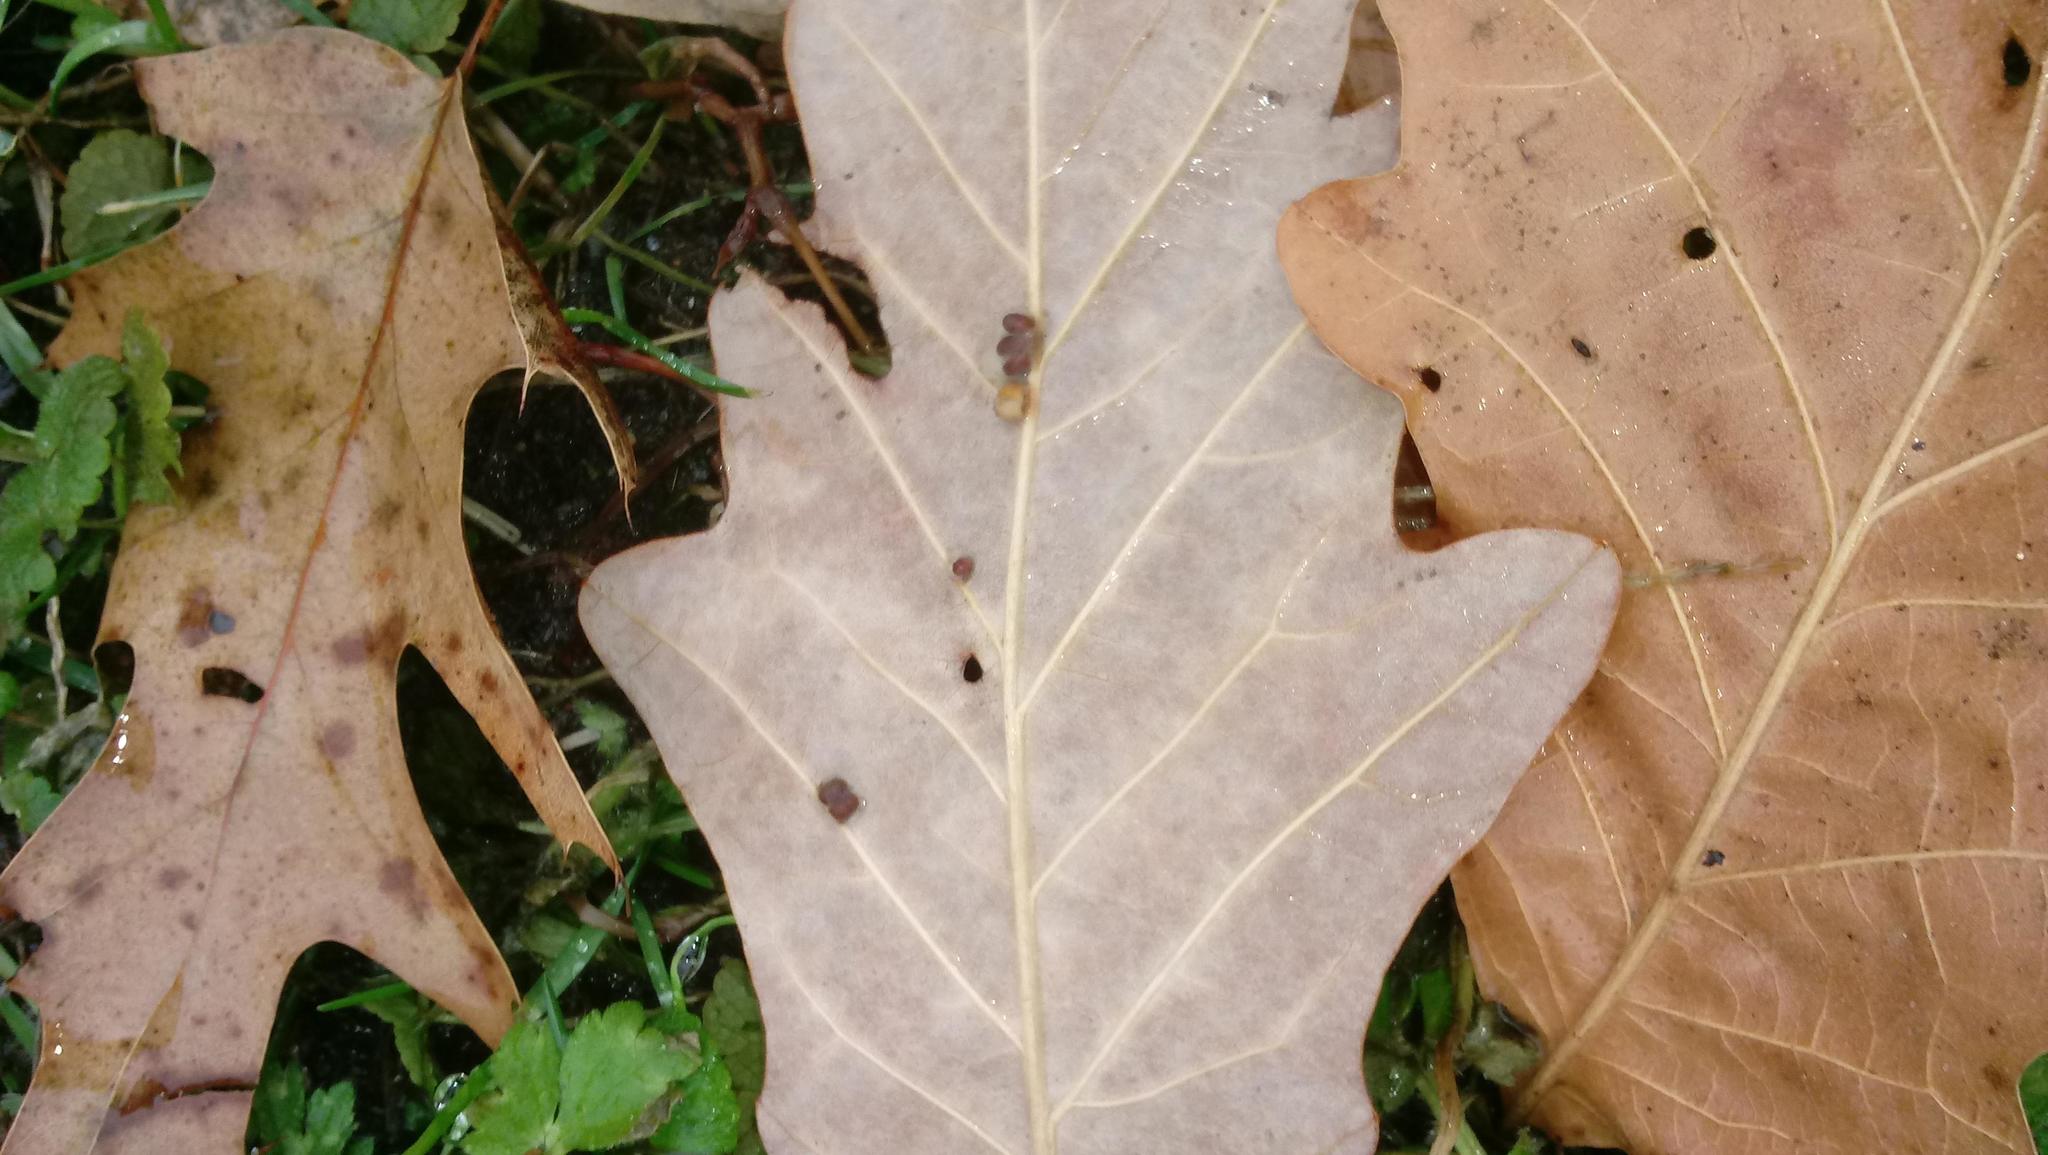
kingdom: Animalia
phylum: Arthropoda
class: Insecta
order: Hymenoptera
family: Cynipidae
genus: Andricus
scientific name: Andricus Druon ignotum
